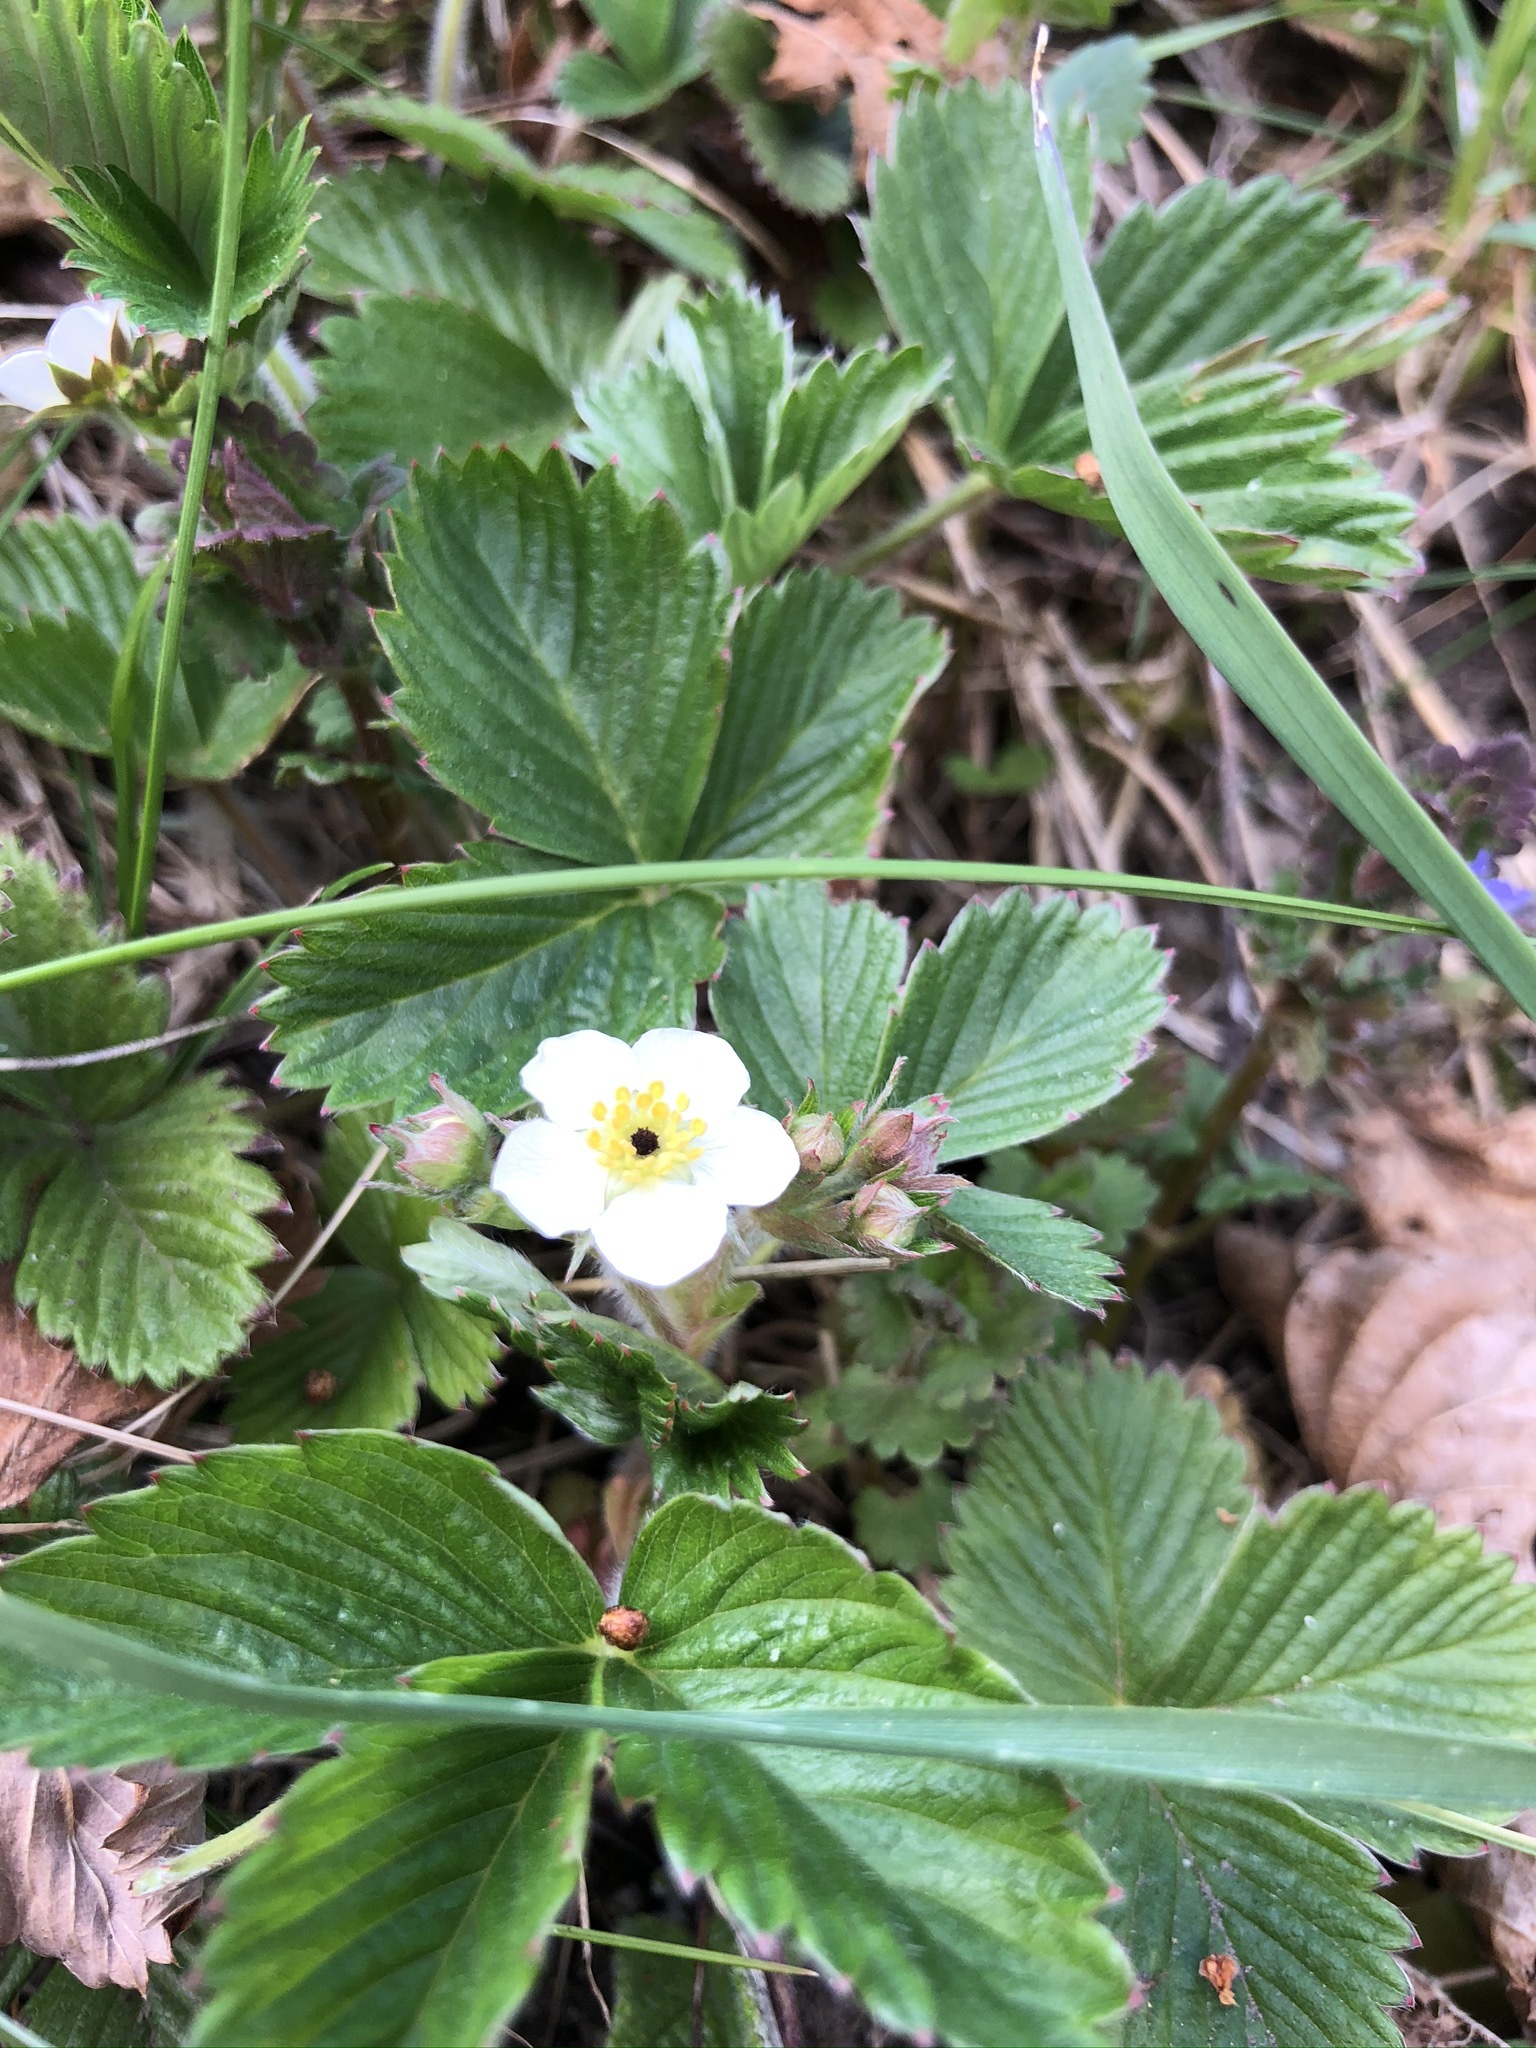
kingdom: Plantae
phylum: Tracheophyta
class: Magnoliopsida
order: Rosales
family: Rosaceae
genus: Fragaria
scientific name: Fragaria vesca
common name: Wild strawberry
